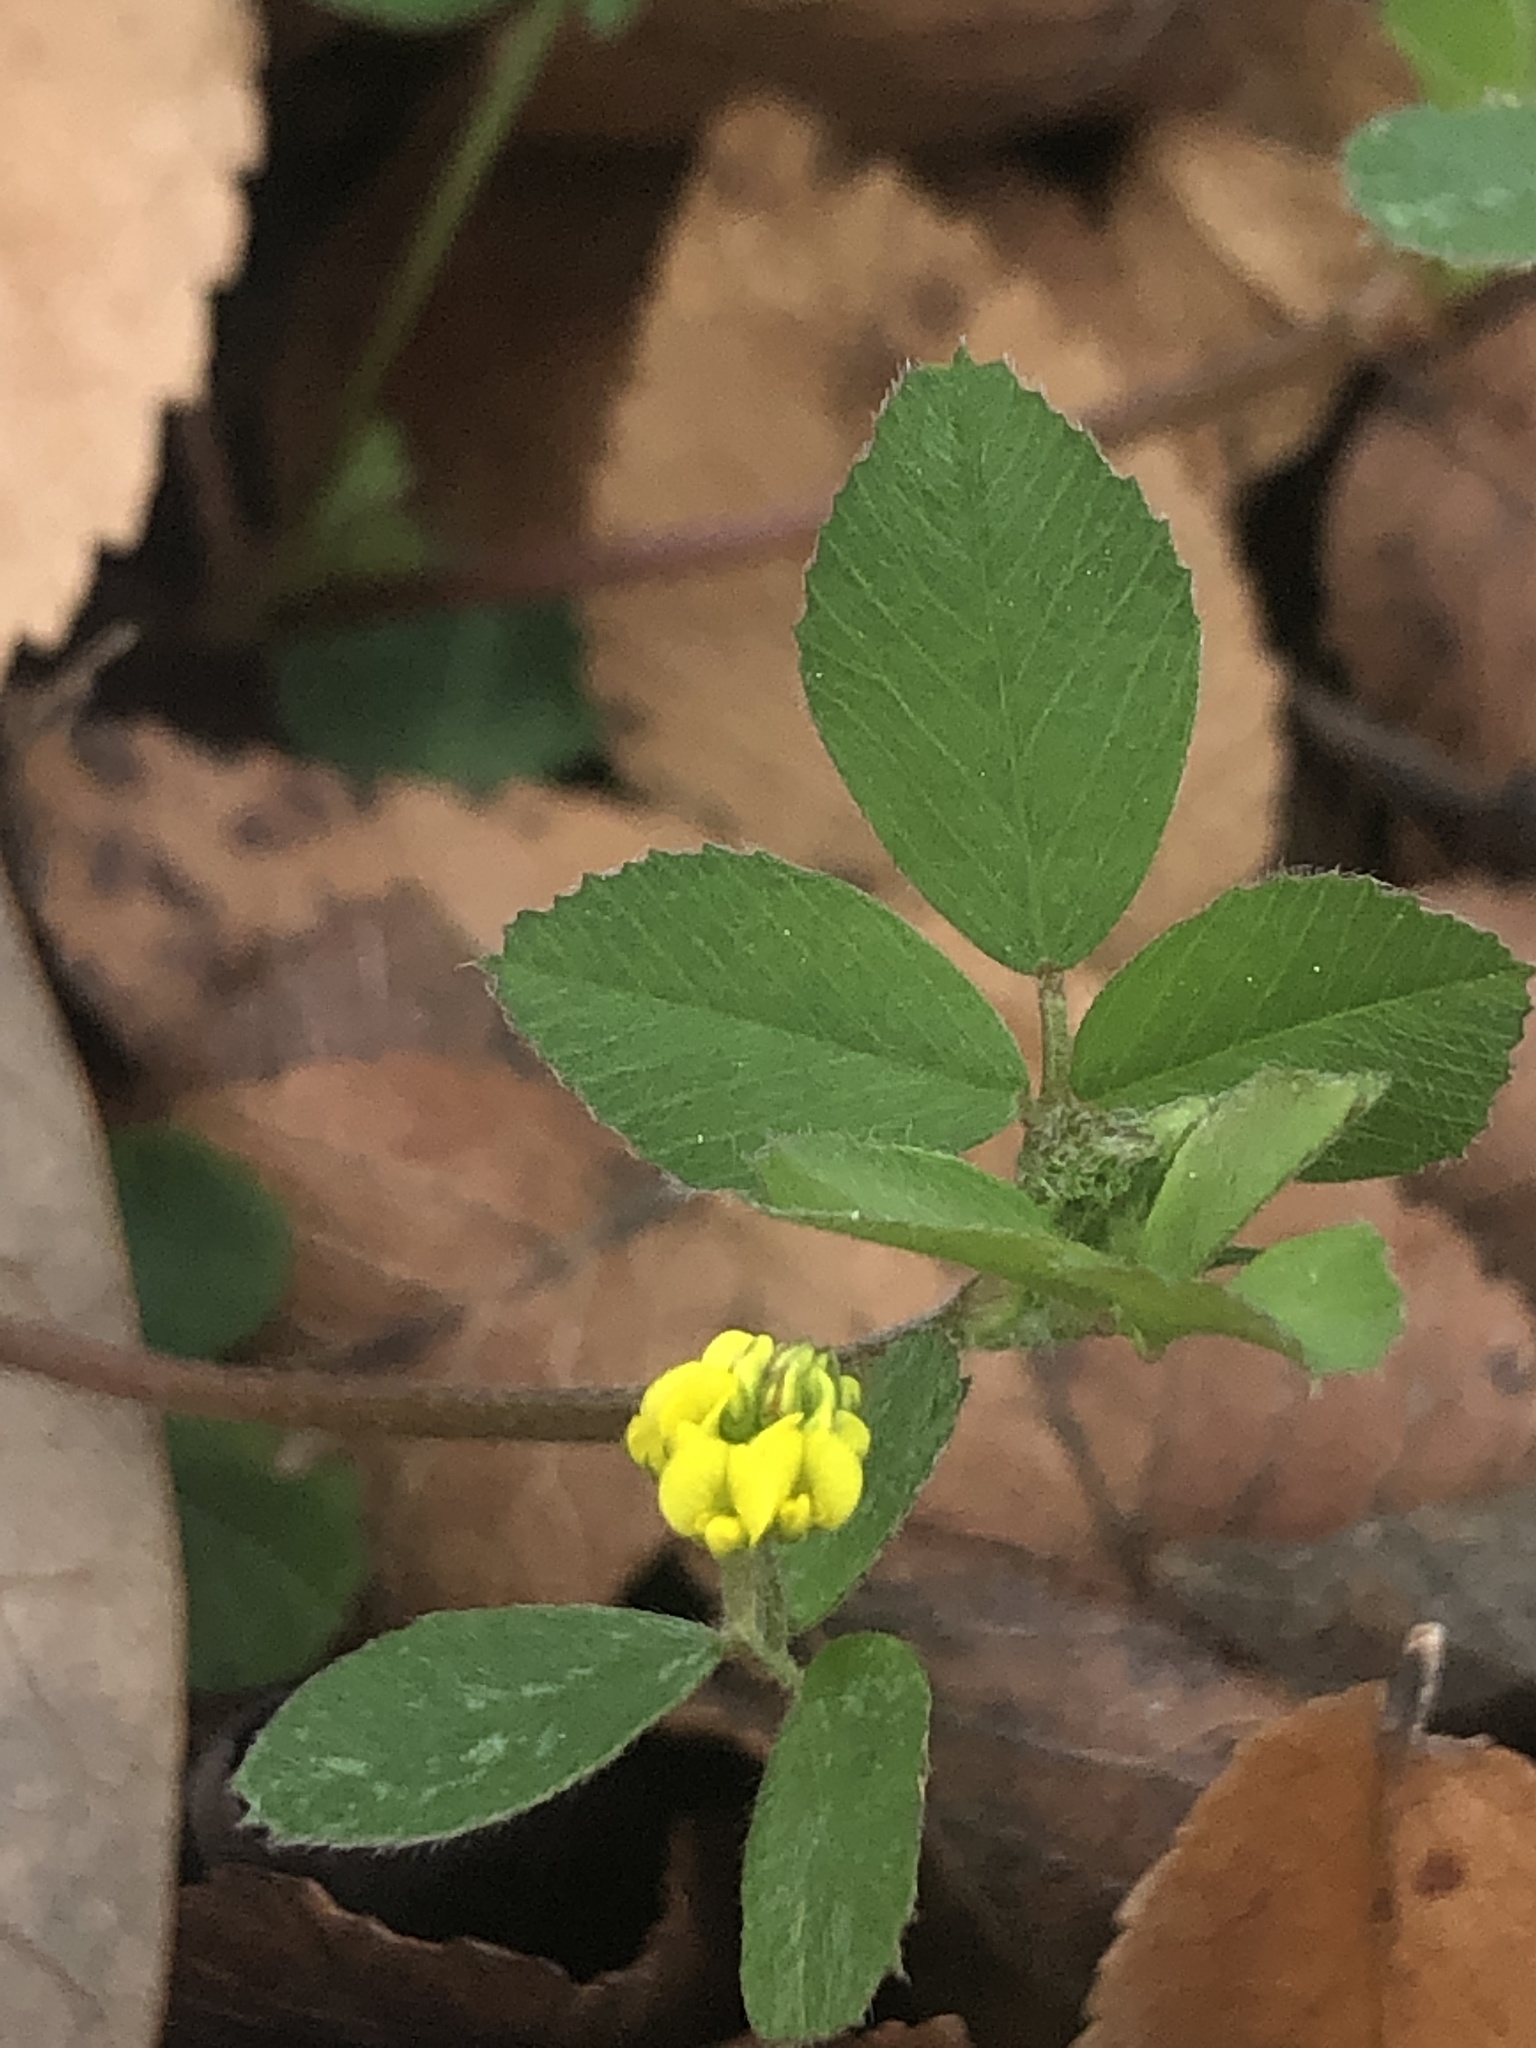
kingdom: Plantae
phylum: Tracheophyta
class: Magnoliopsida
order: Fabales
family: Fabaceae
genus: Medicago
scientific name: Medicago lupulina
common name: Black medick
